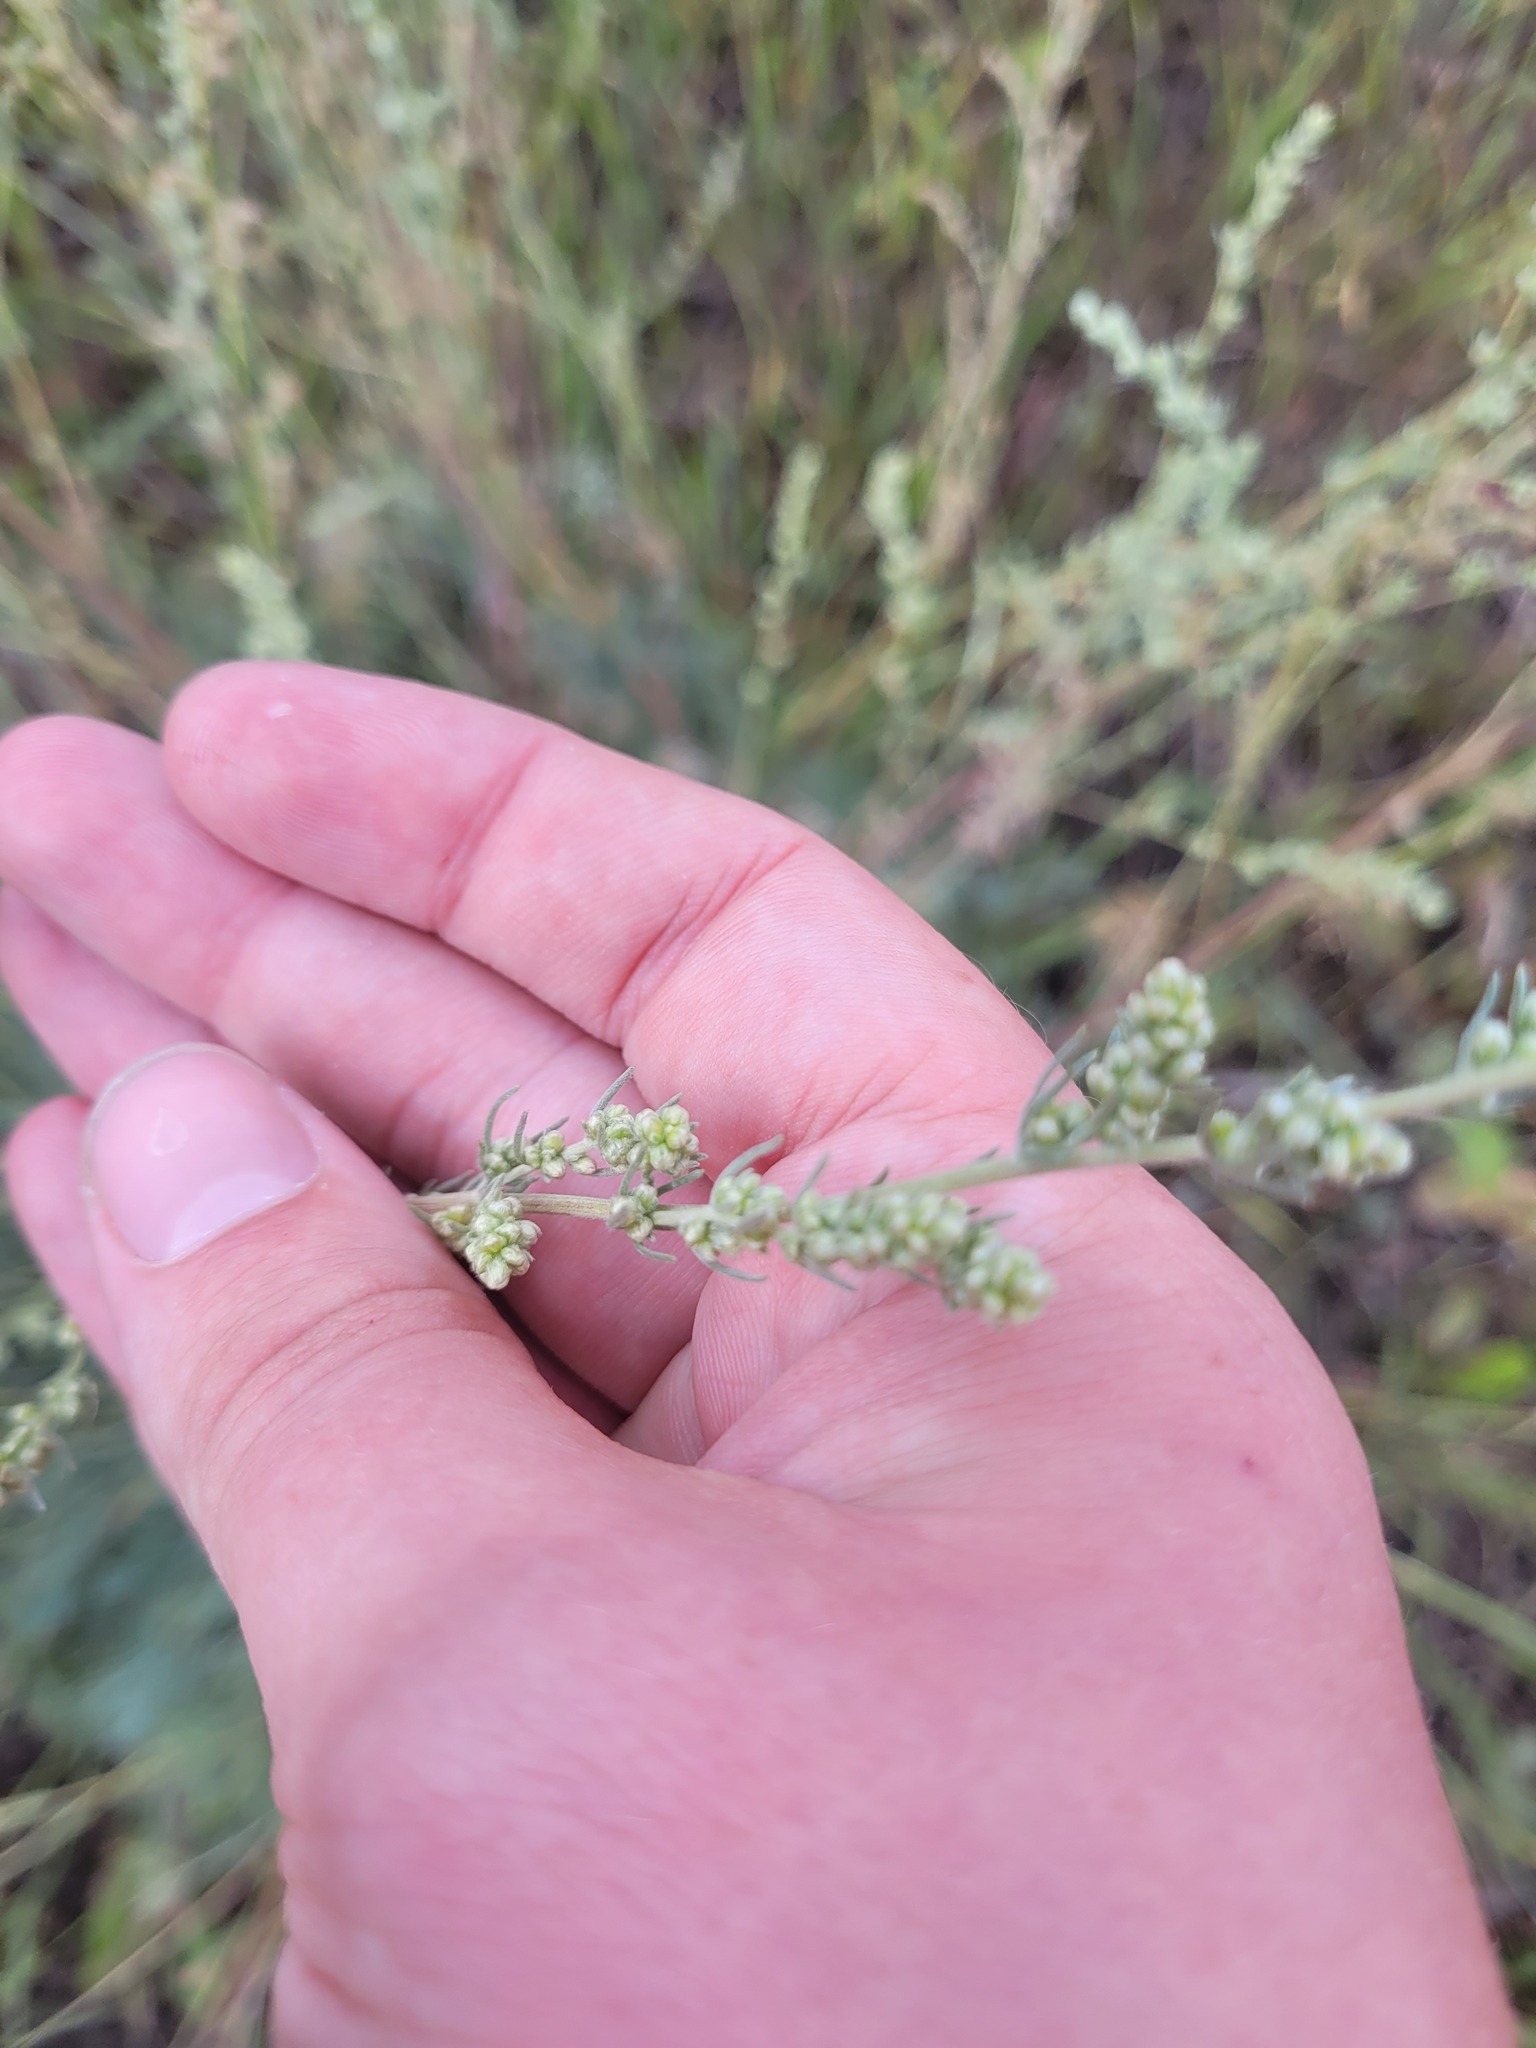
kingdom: Plantae
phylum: Tracheophyta
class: Magnoliopsida
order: Asterales
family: Asteraceae
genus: Artemisia
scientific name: Artemisia marschalliana
